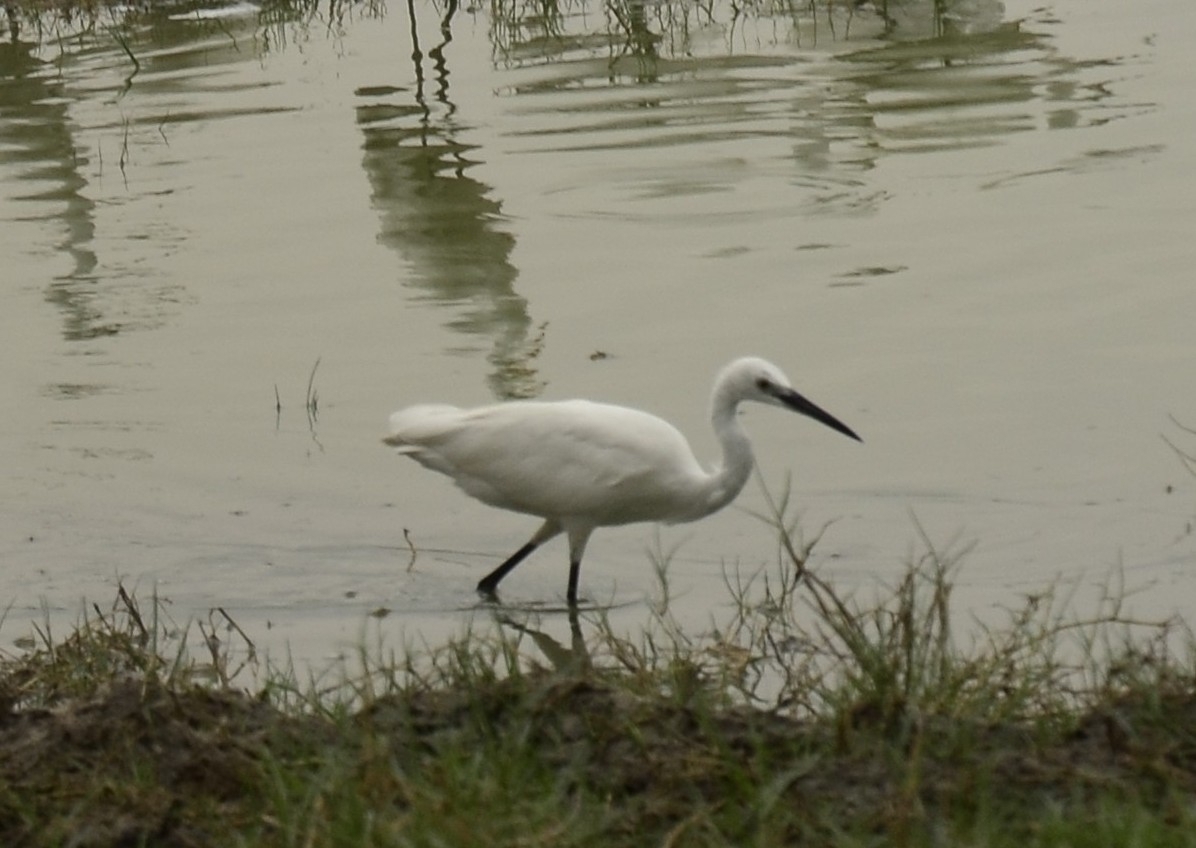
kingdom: Animalia
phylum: Chordata
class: Aves
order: Pelecaniformes
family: Ardeidae
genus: Egretta
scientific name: Egretta garzetta
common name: Little egret
